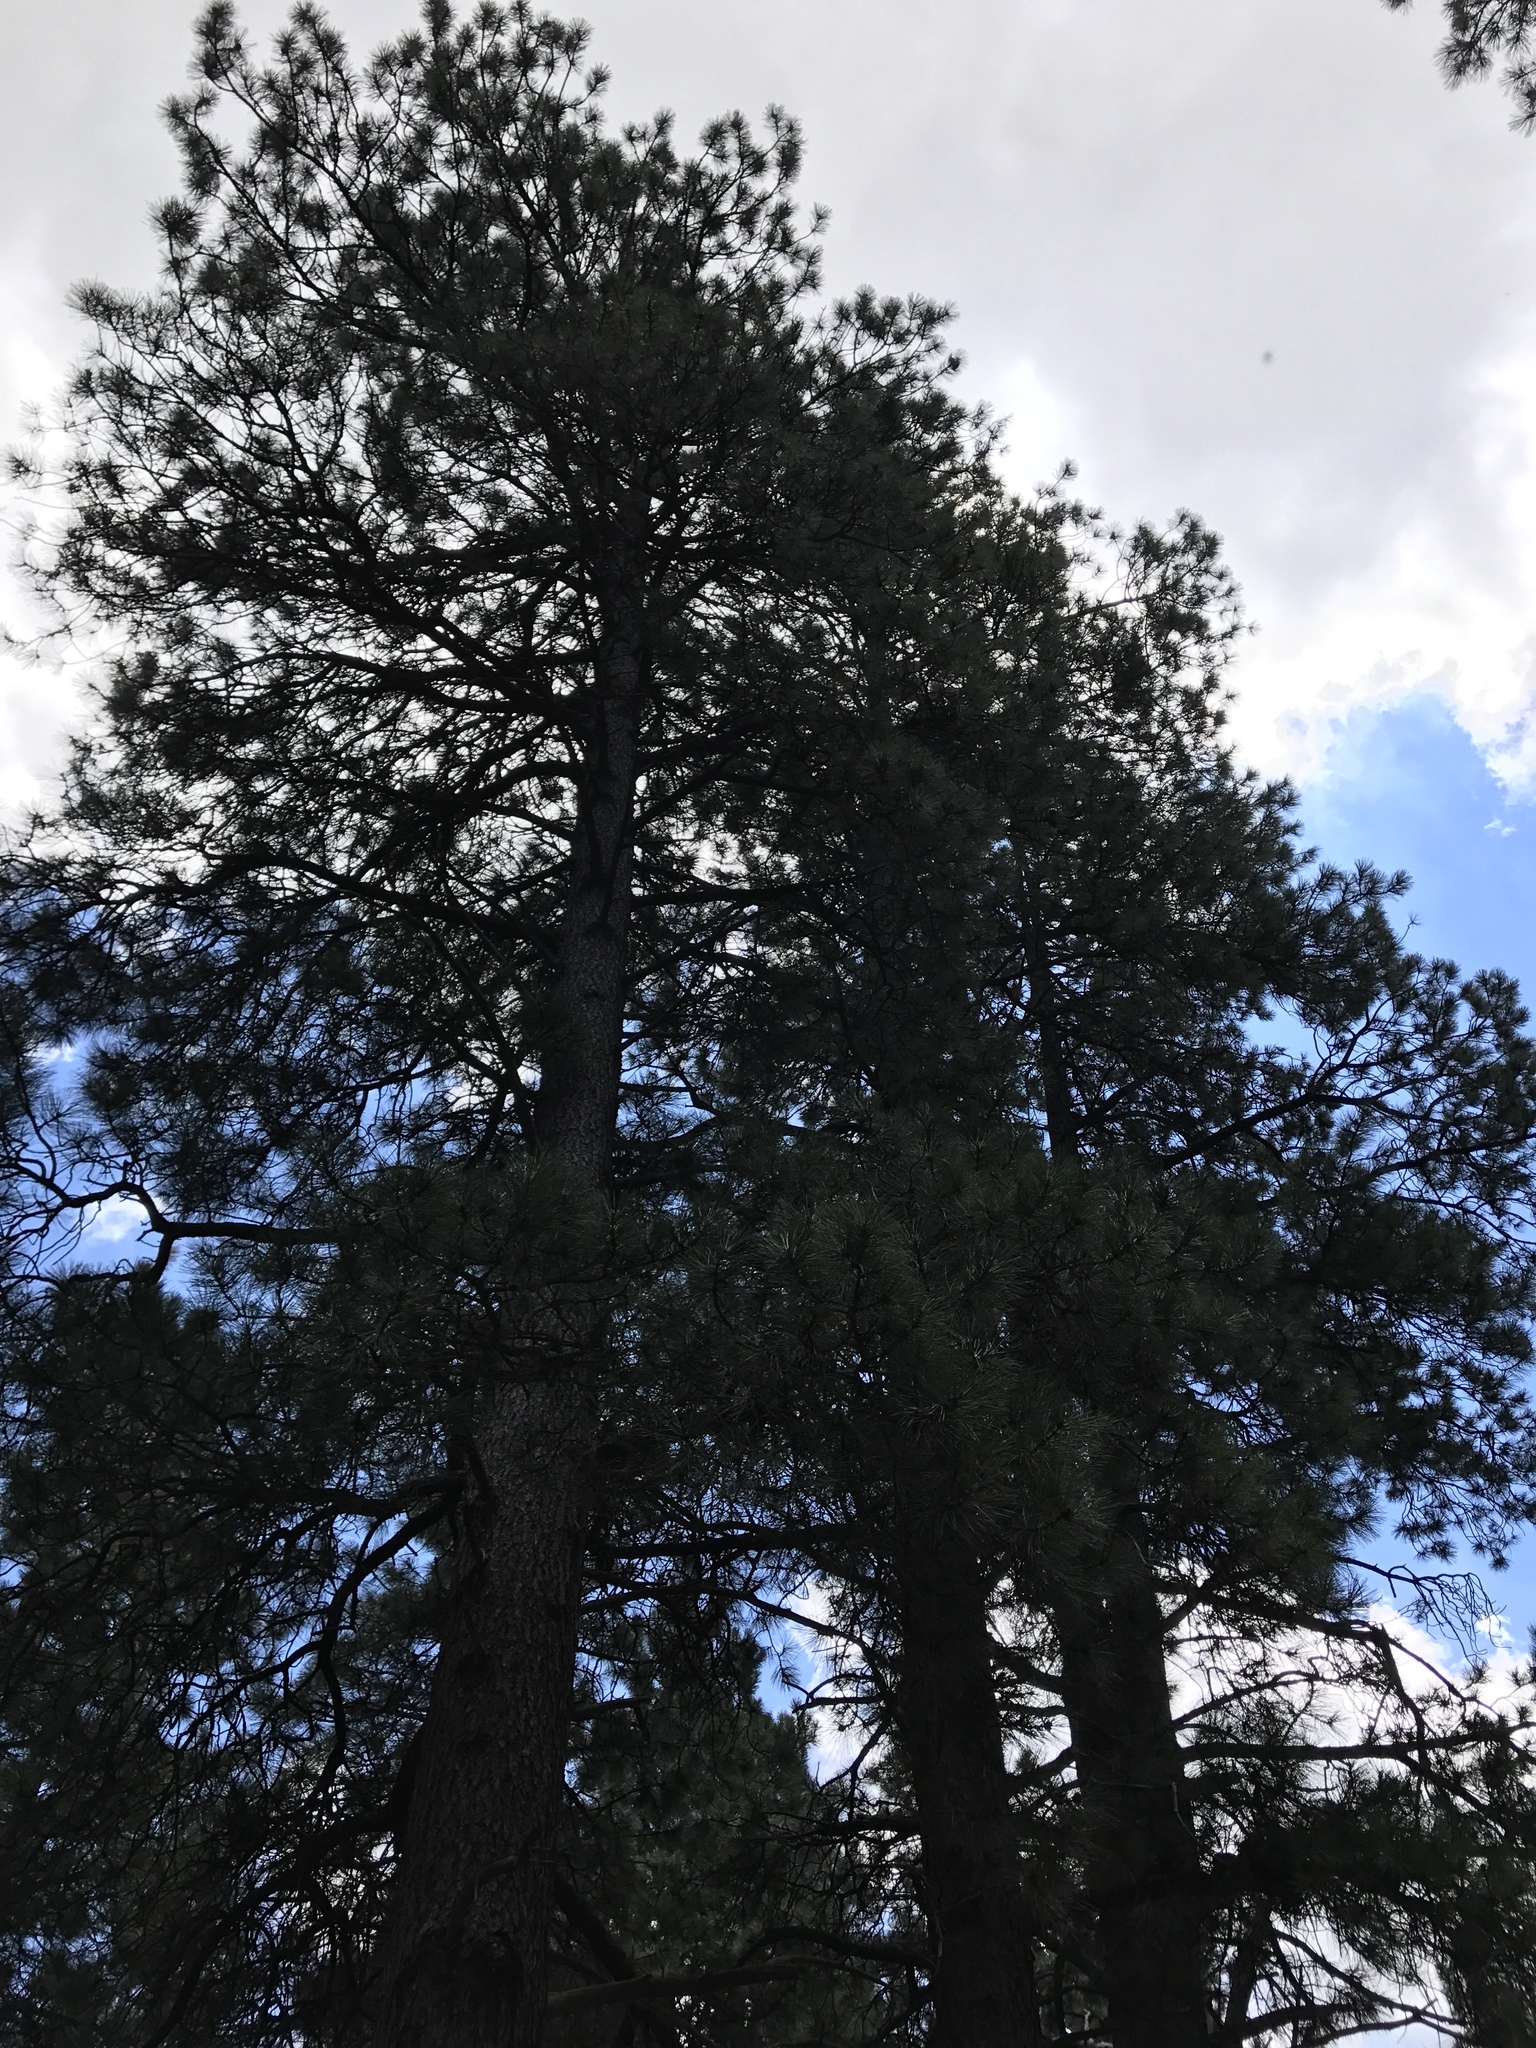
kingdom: Plantae
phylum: Tracheophyta
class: Pinopsida
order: Pinales
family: Pinaceae
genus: Pinus
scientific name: Pinus ponderosa
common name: Western yellow-pine
